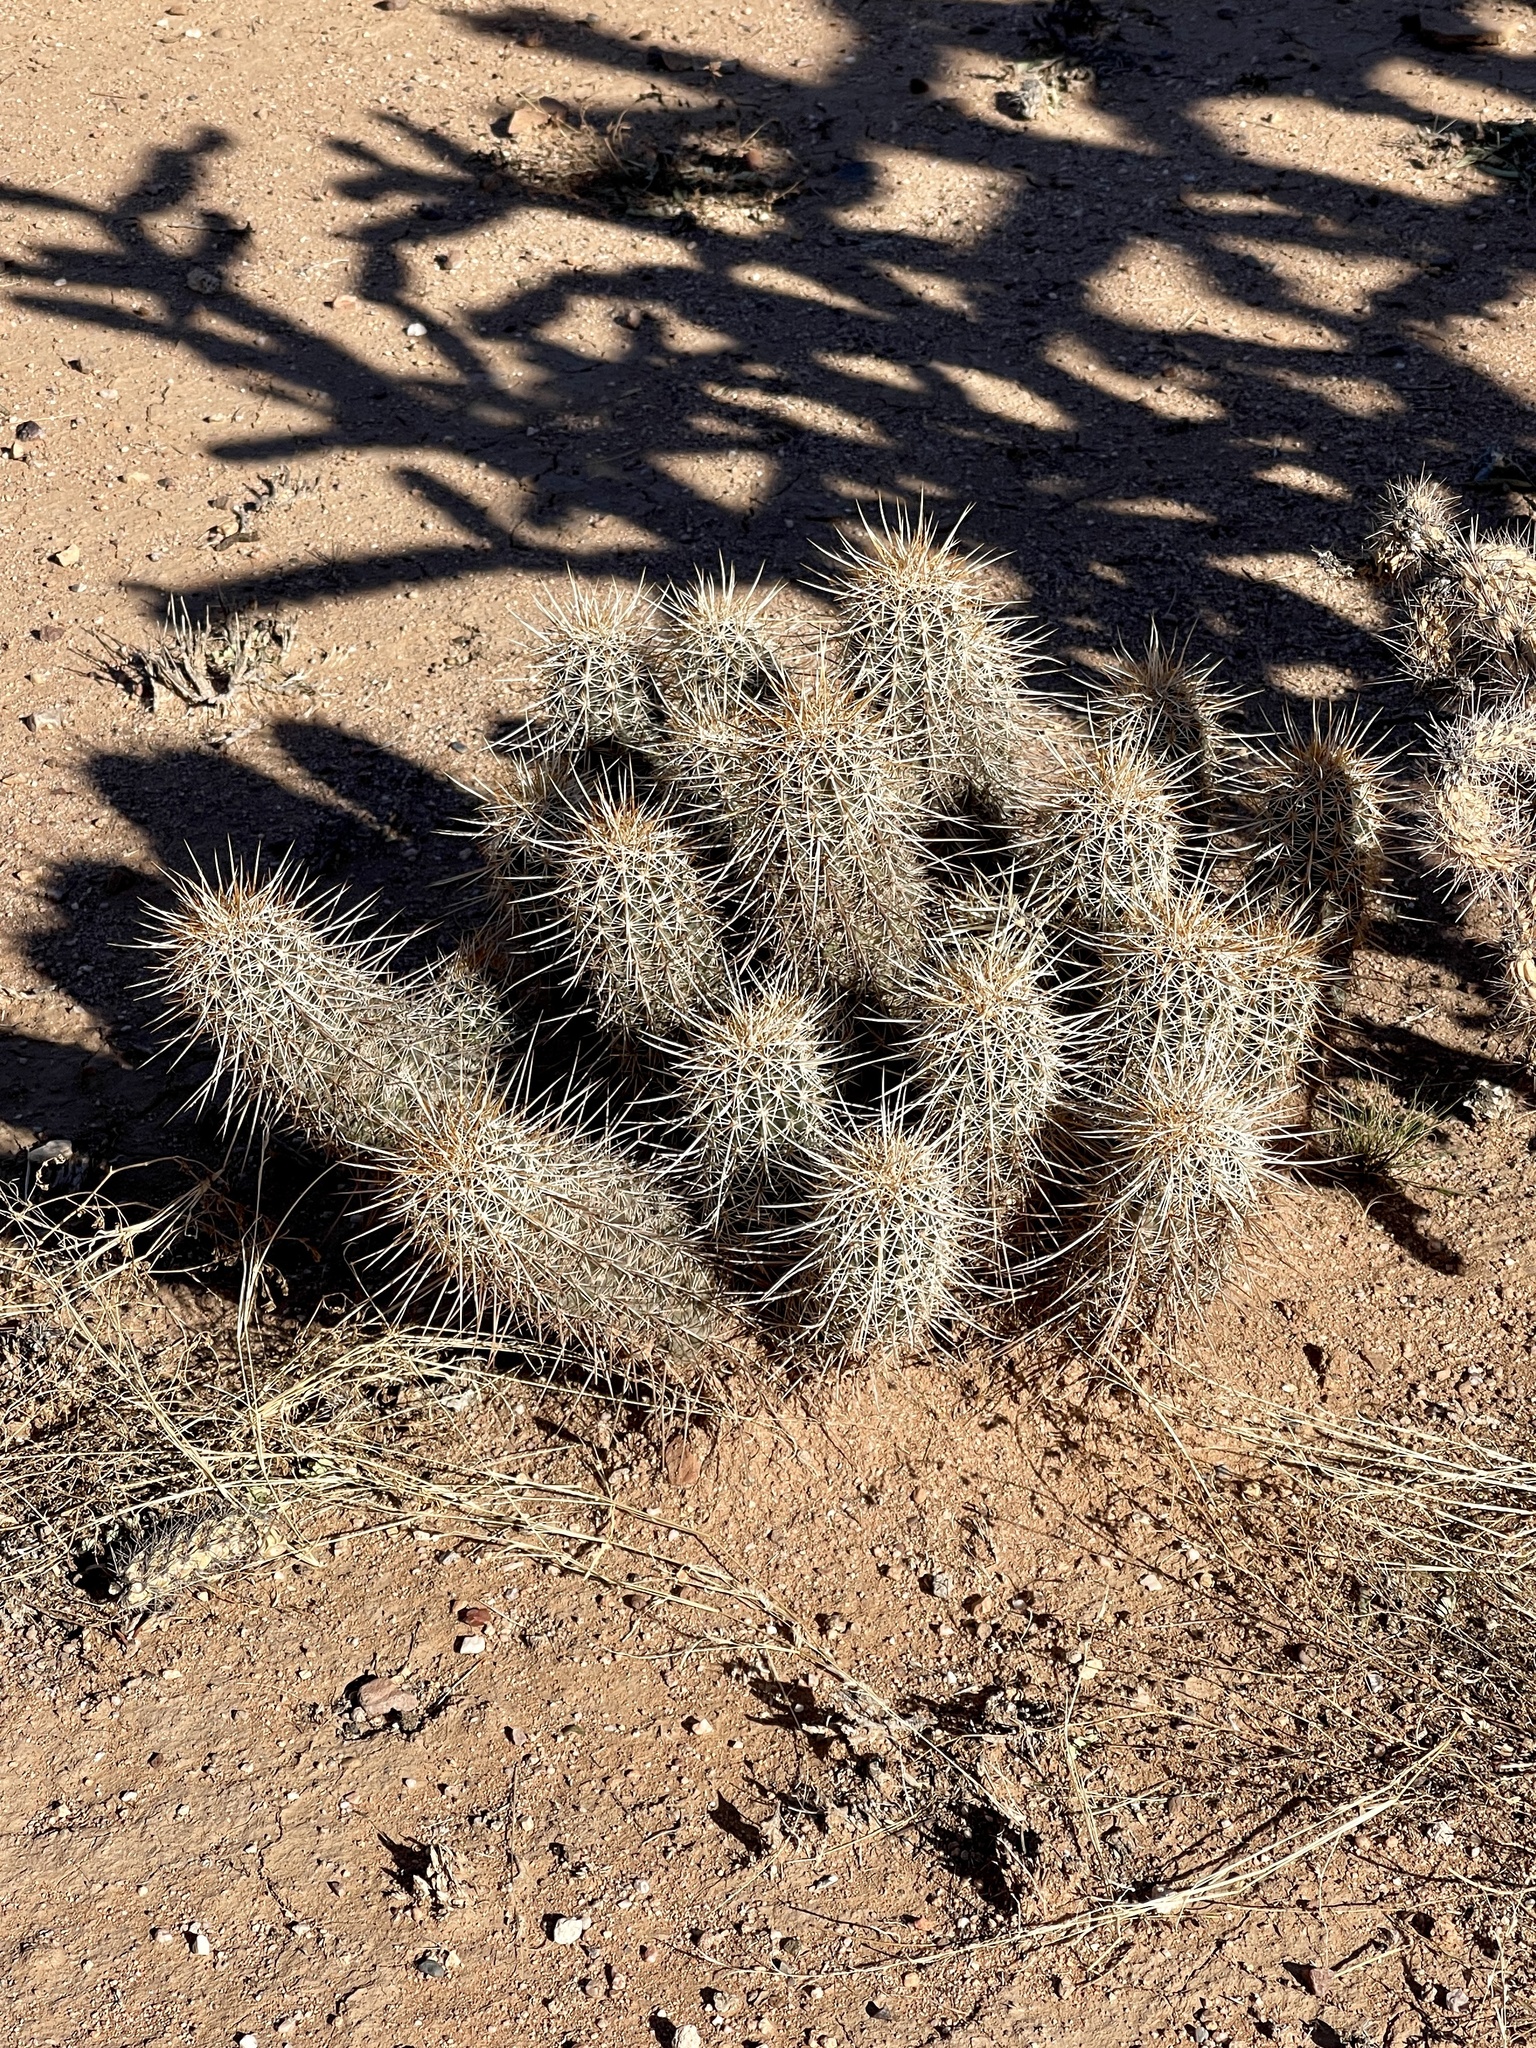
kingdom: Plantae
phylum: Tracheophyta
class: Magnoliopsida
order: Caryophyllales
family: Cactaceae
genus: Echinocereus
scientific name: Echinocereus fasciculatus
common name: Bundle hedgehog
